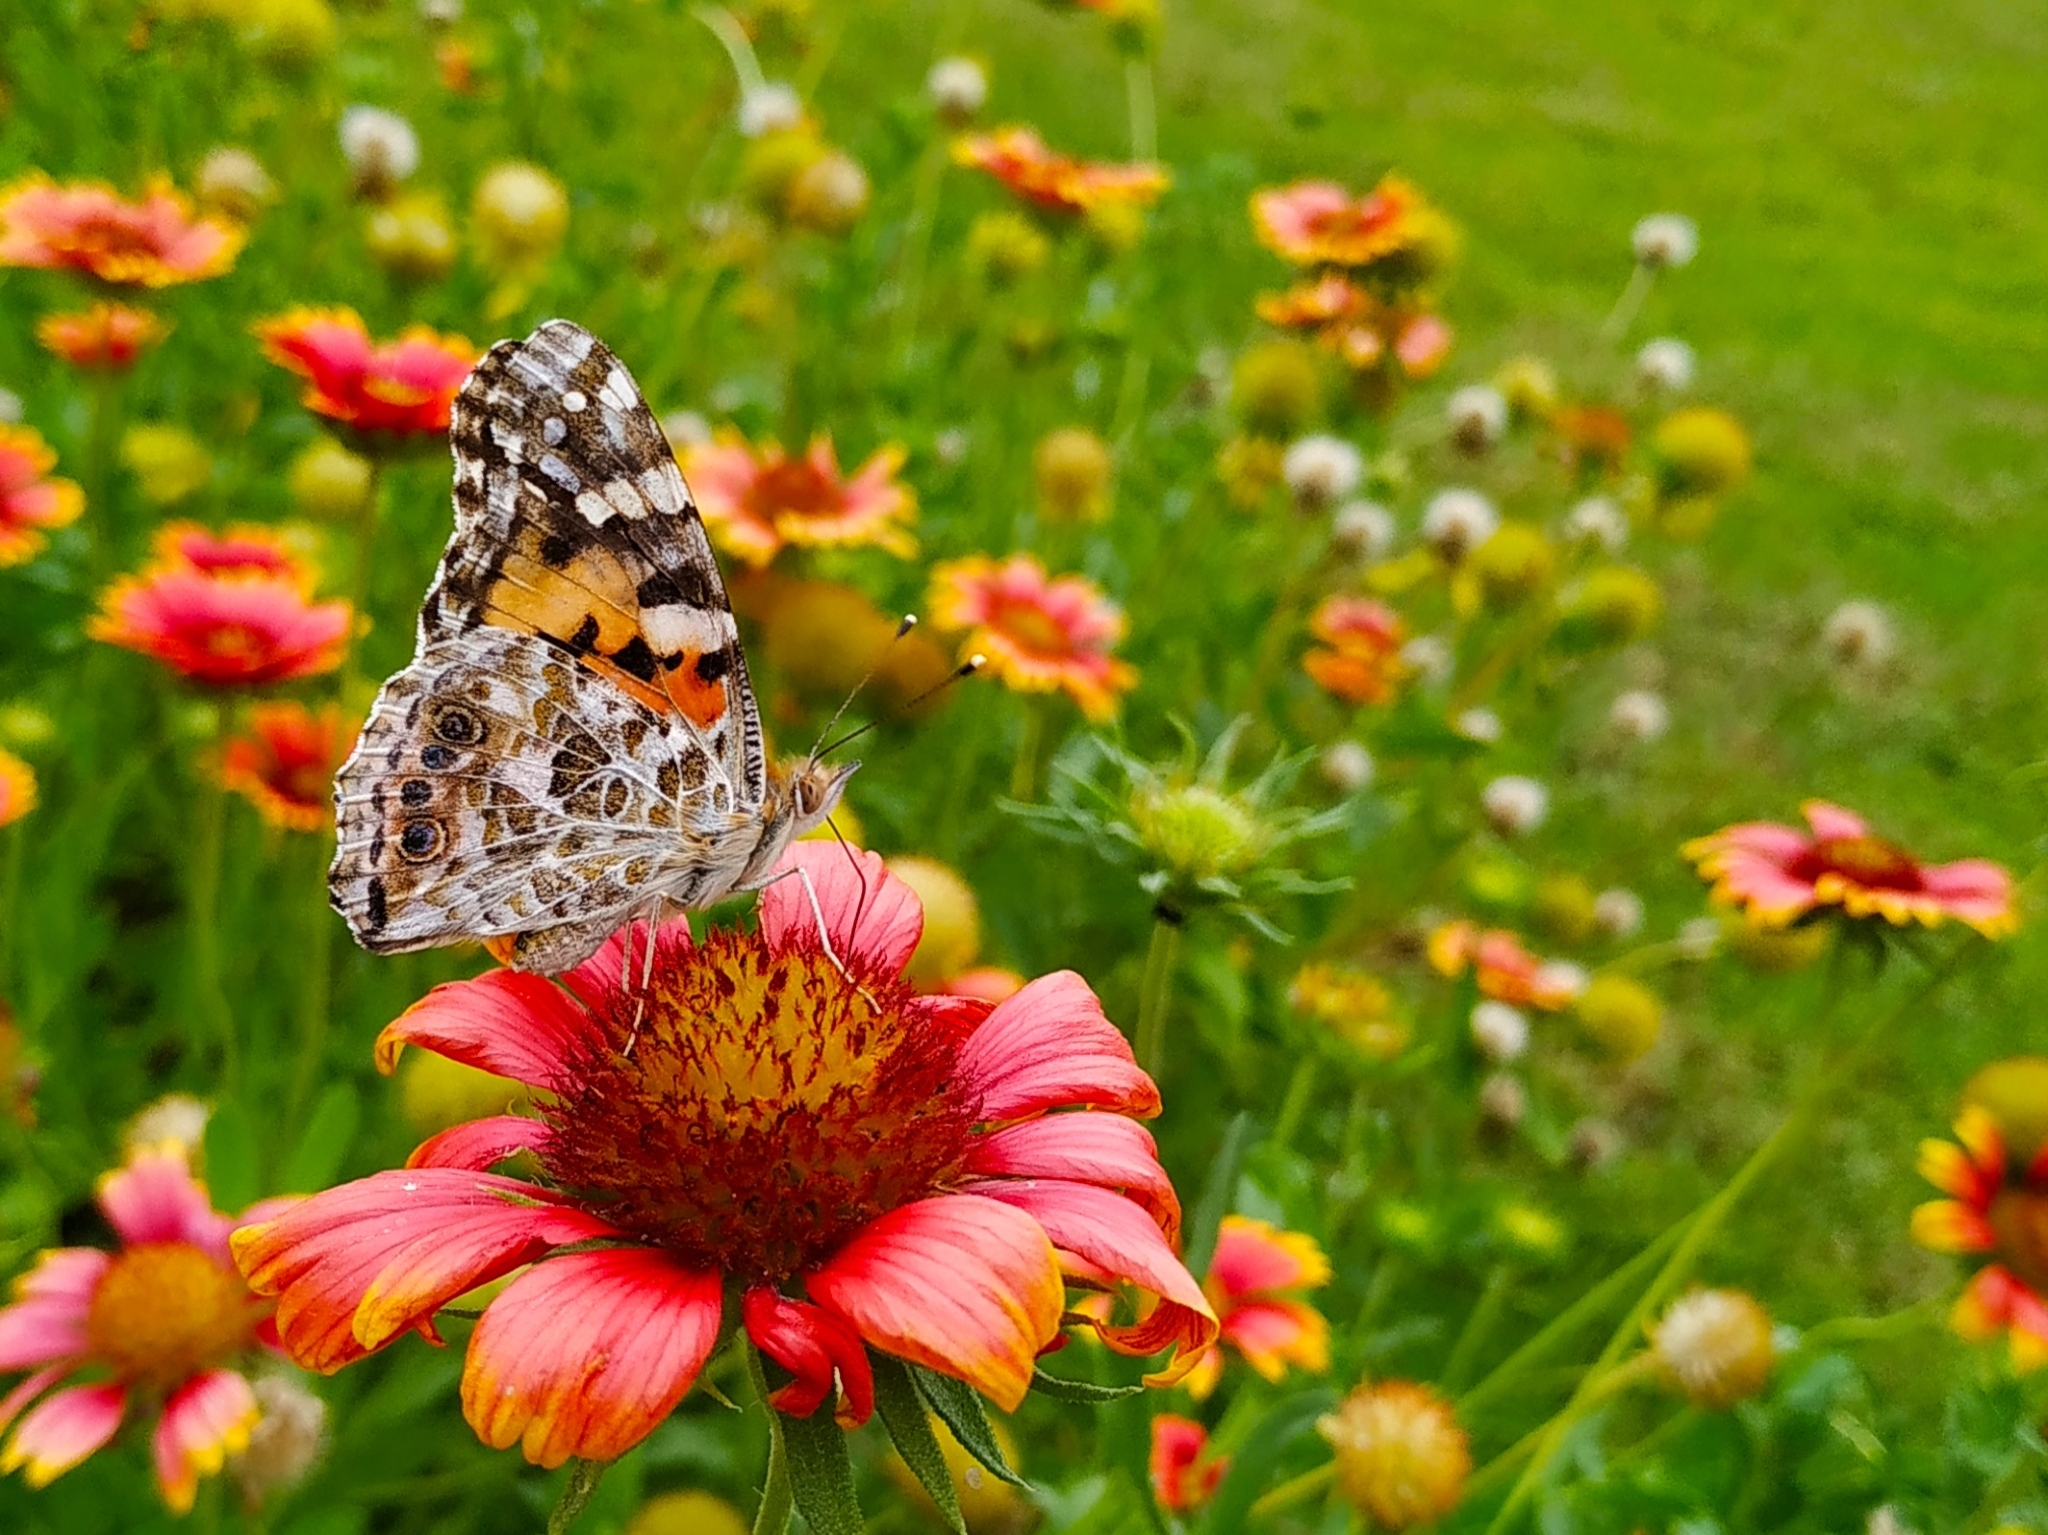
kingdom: Animalia
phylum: Arthropoda
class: Insecta
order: Lepidoptera
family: Nymphalidae
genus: Vanessa
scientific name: Vanessa cardui
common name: Painted lady
